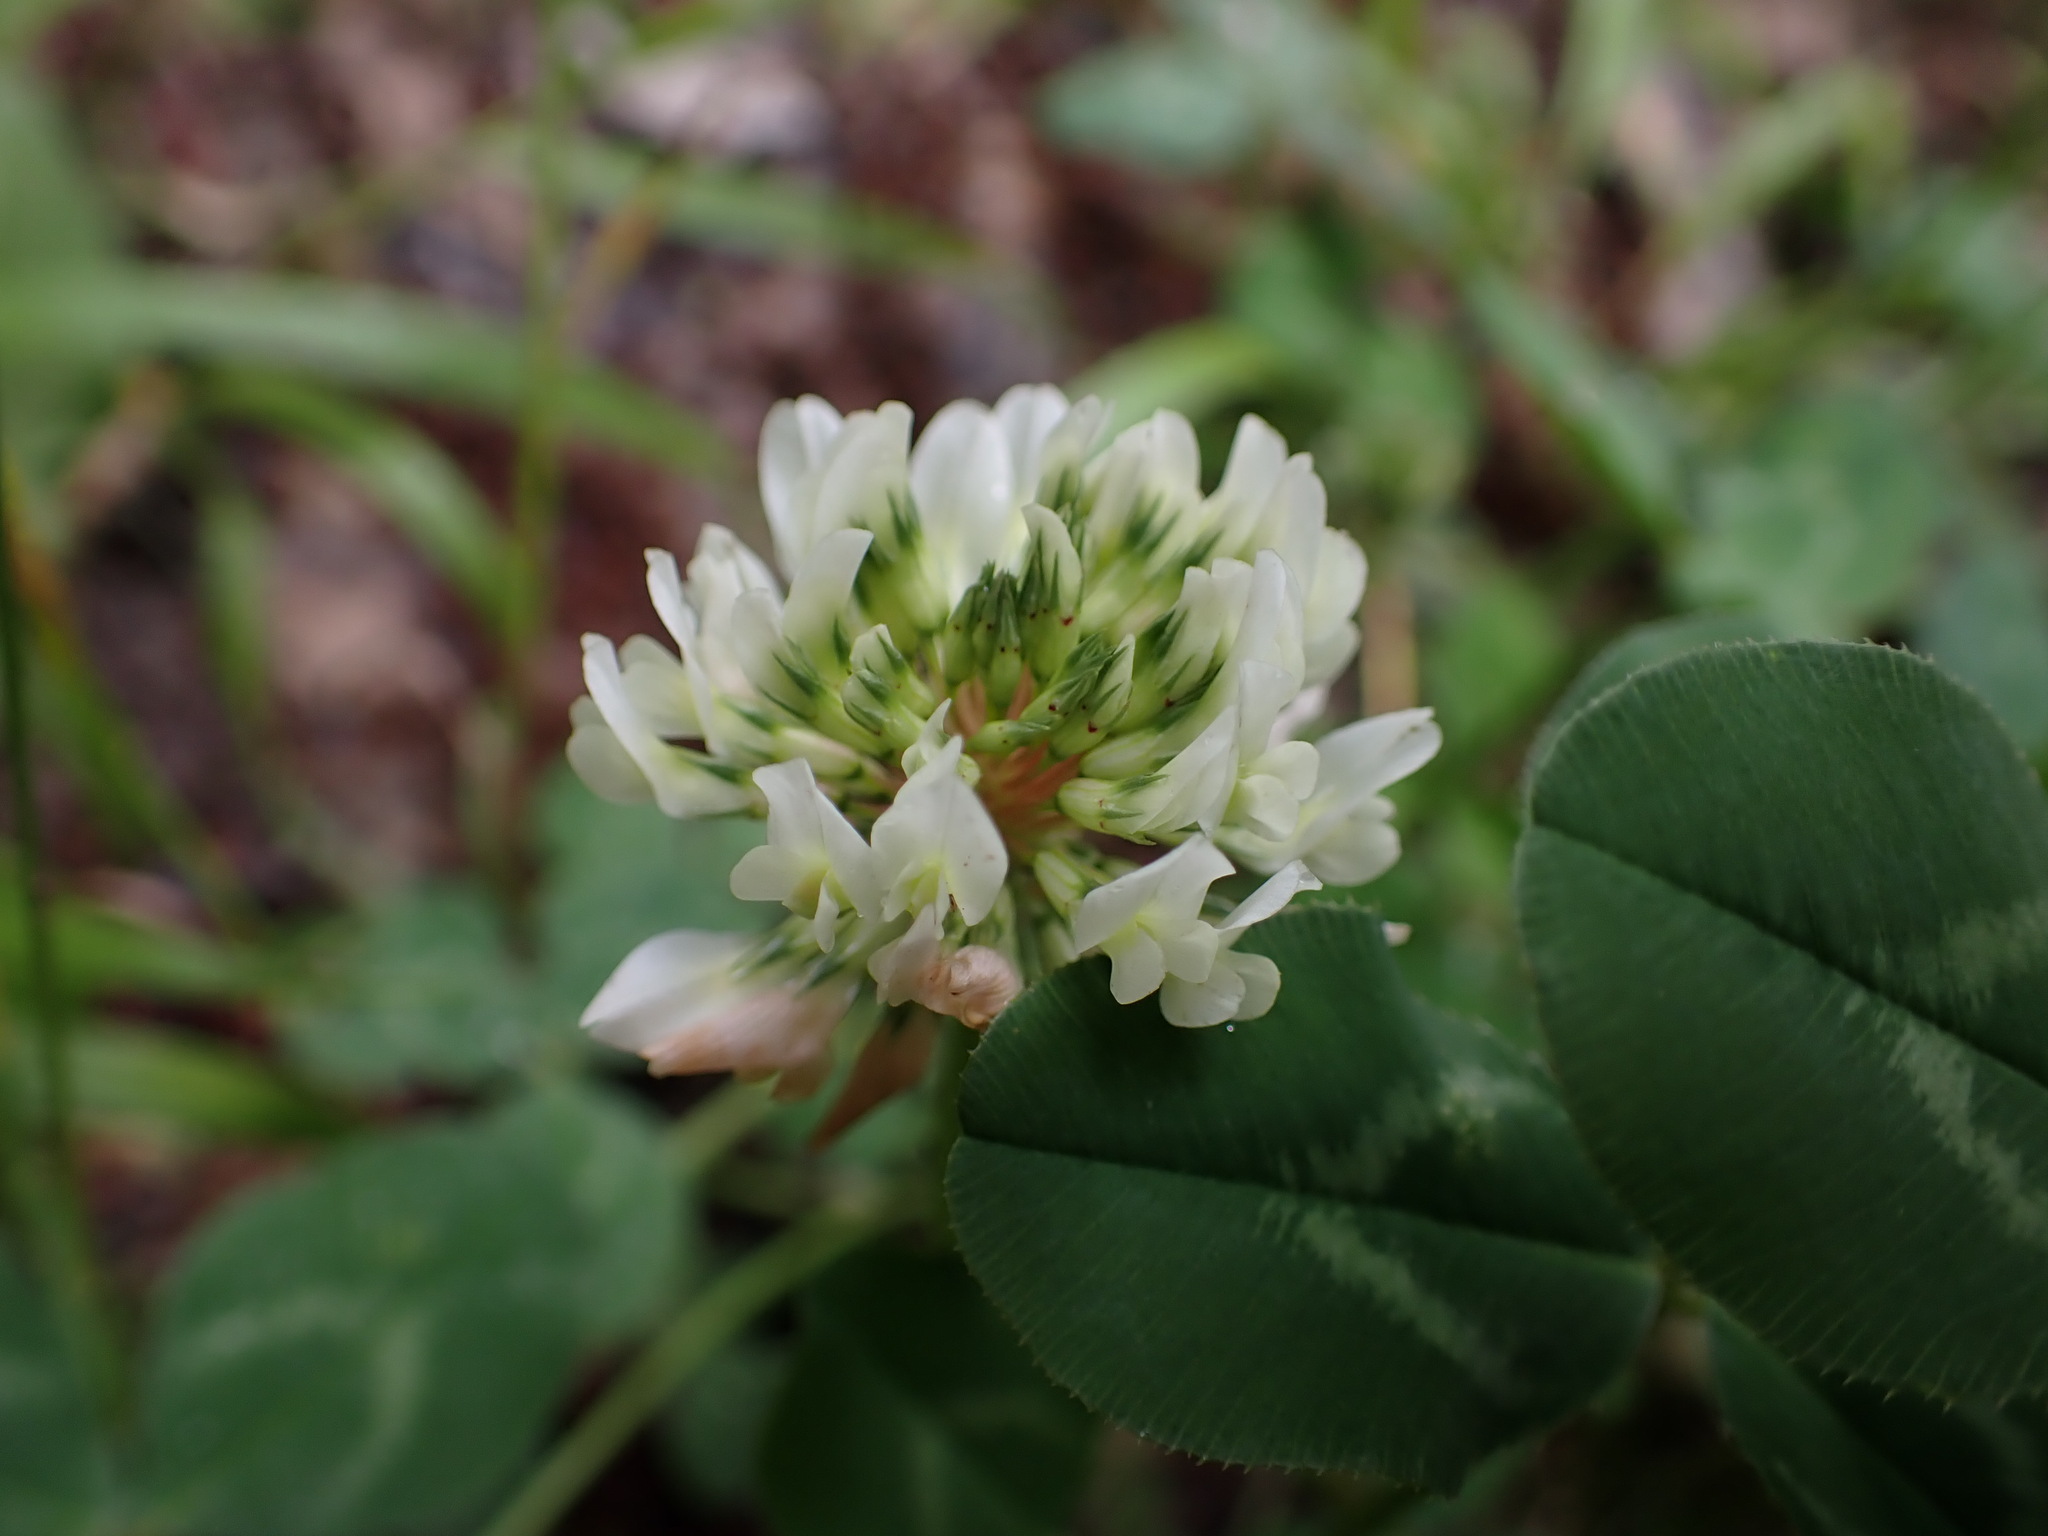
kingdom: Plantae
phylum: Tracheophyta
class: Magnoliopsida
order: Fabales
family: Fabaceae
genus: Trifolium
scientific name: Trifolium repens
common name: White clover
